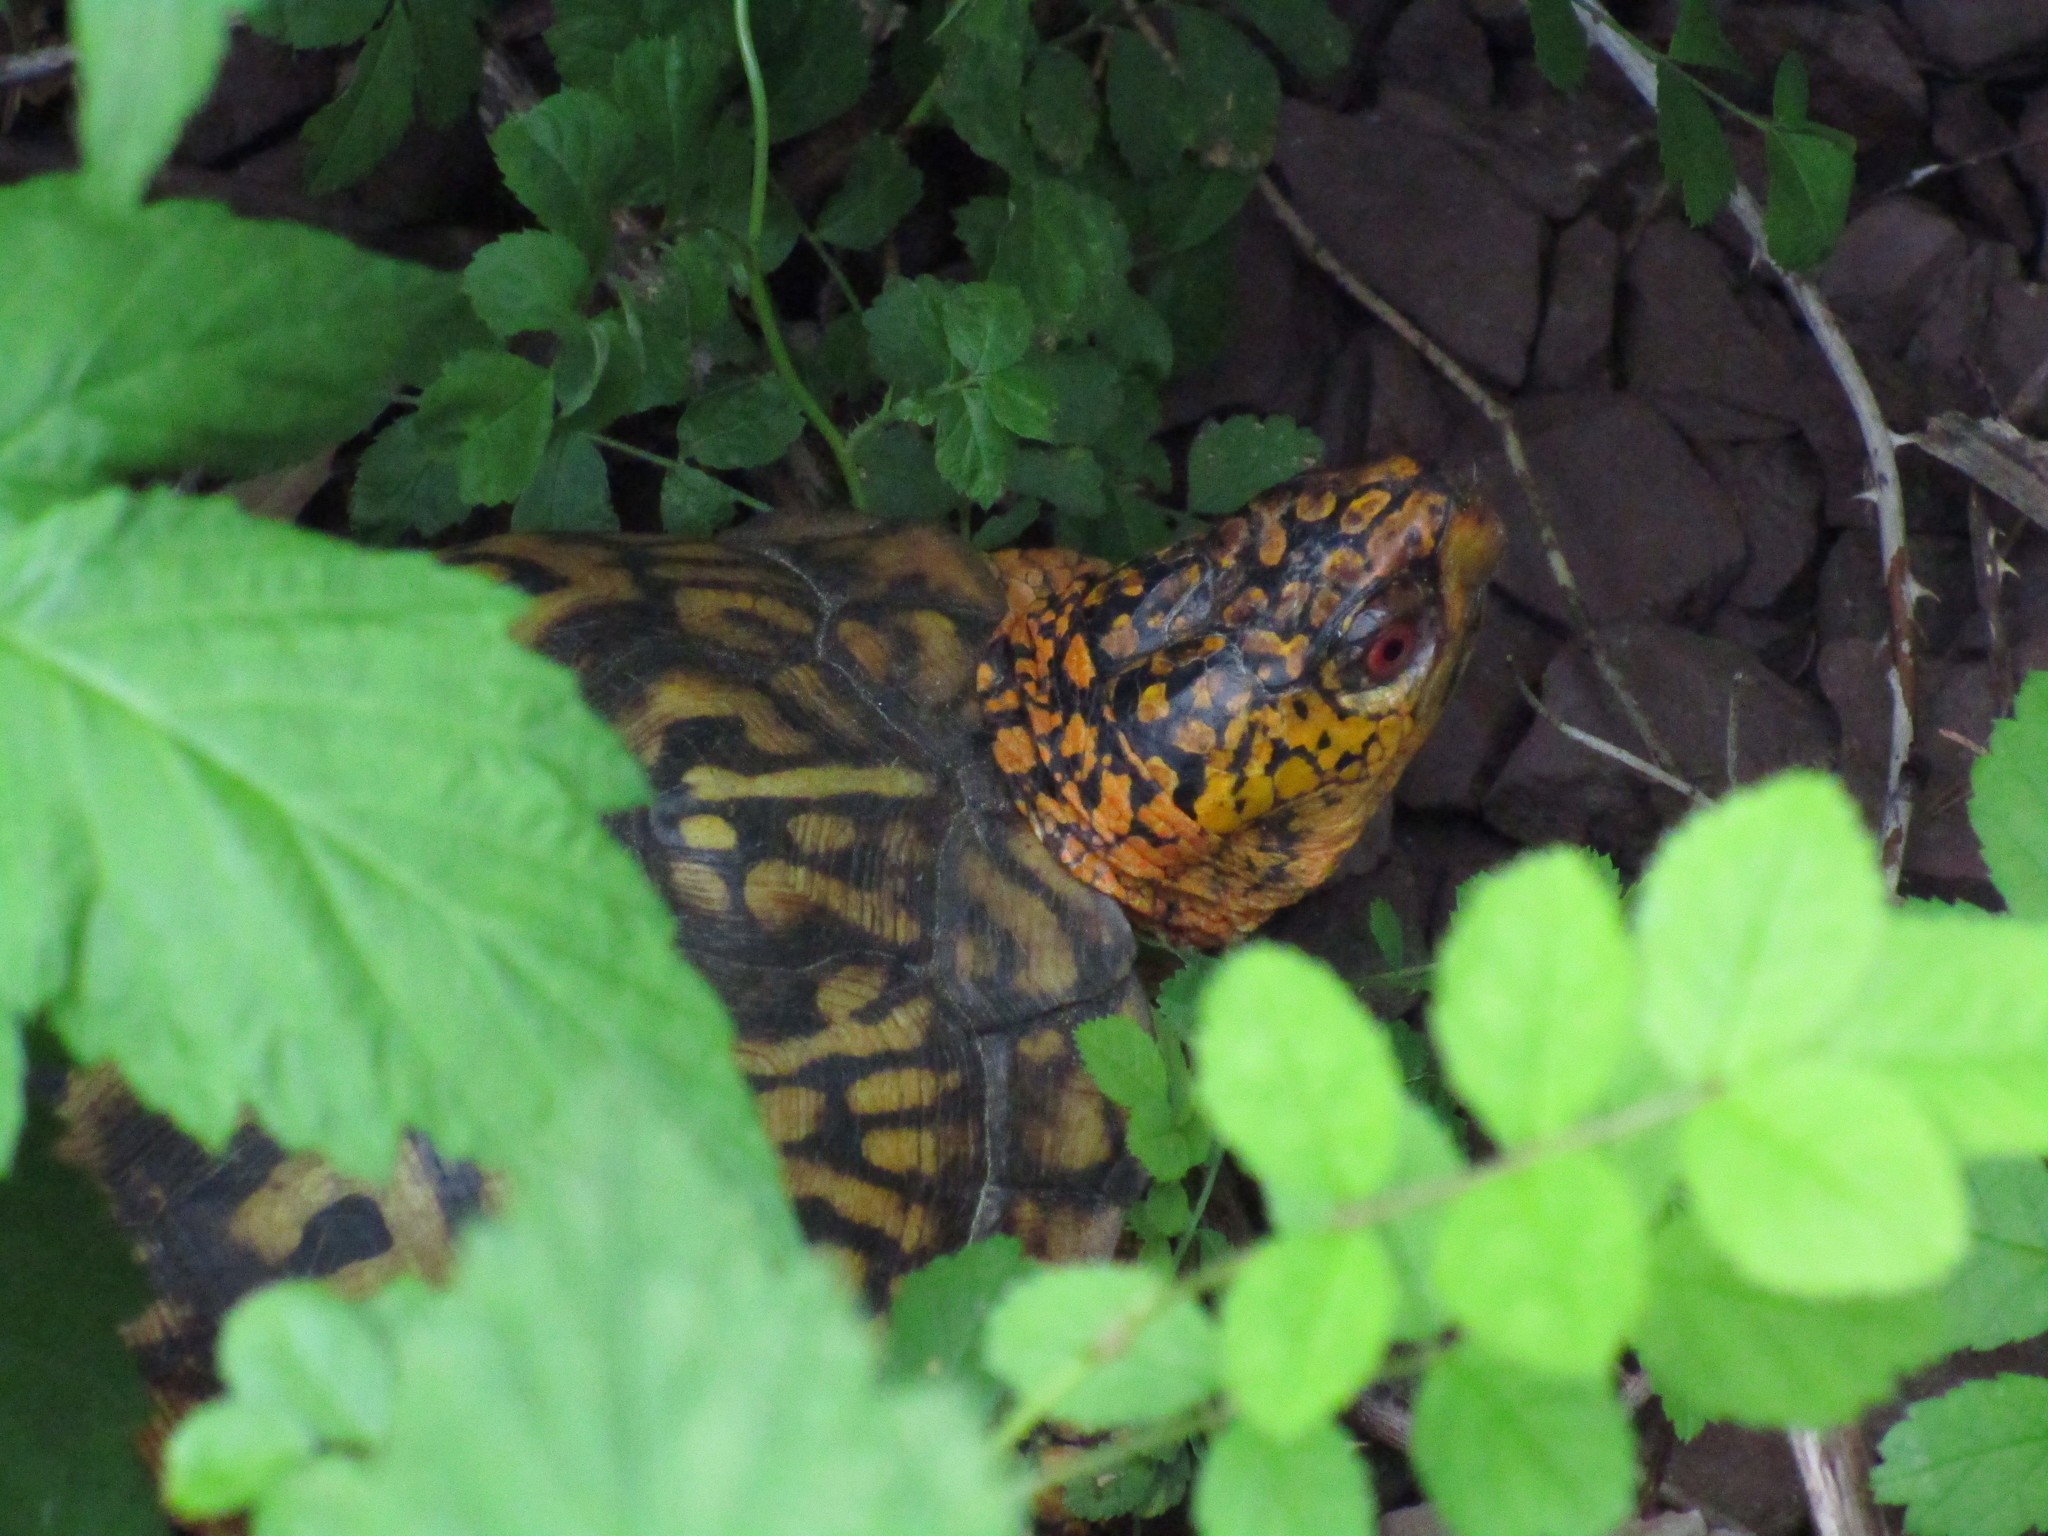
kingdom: Animalia
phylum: Chordata
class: Testudines
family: Emydidae
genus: Terrapene
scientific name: Terrapene carolina
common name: Common box turtle
